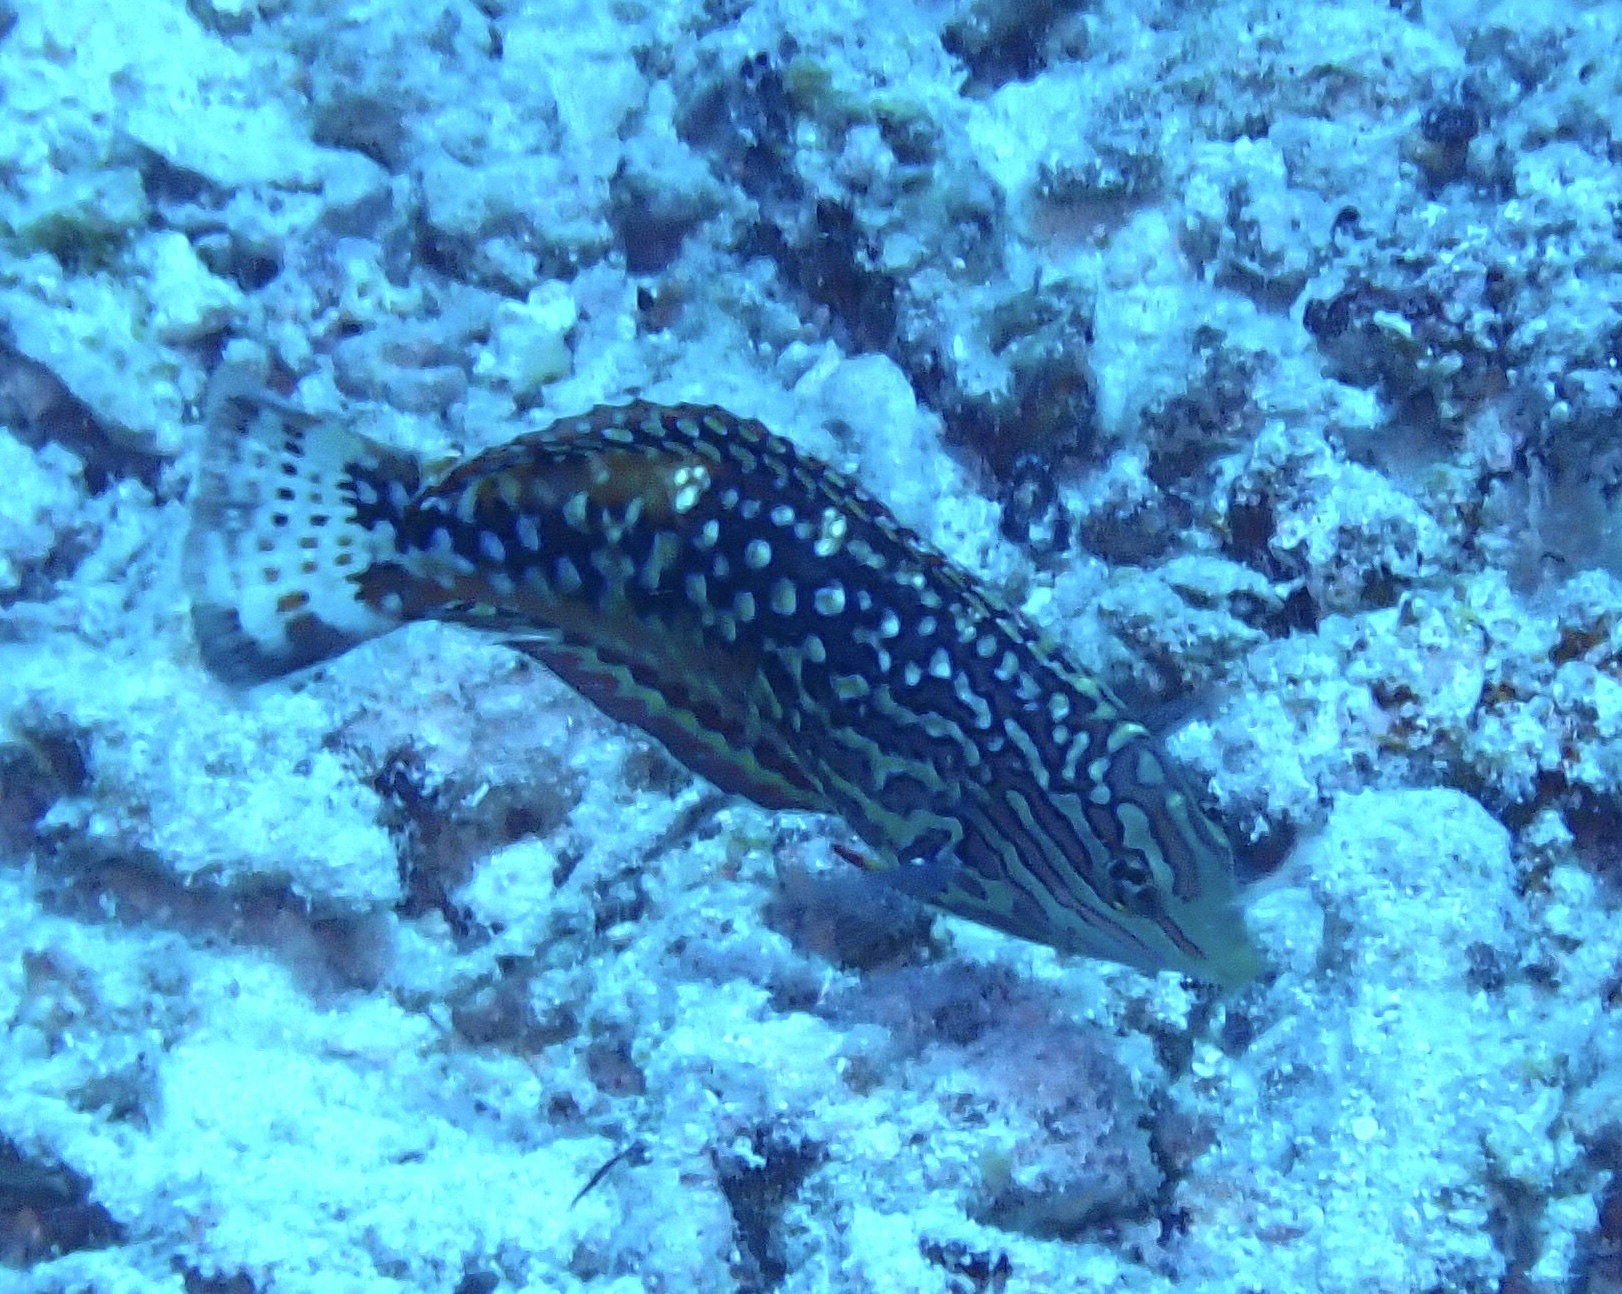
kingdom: Animalia
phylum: Chordata
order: Perciformes
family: Labridae
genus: Macropharyngodon
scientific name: Macropharyngodon marisrubri
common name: Rare wrasse
